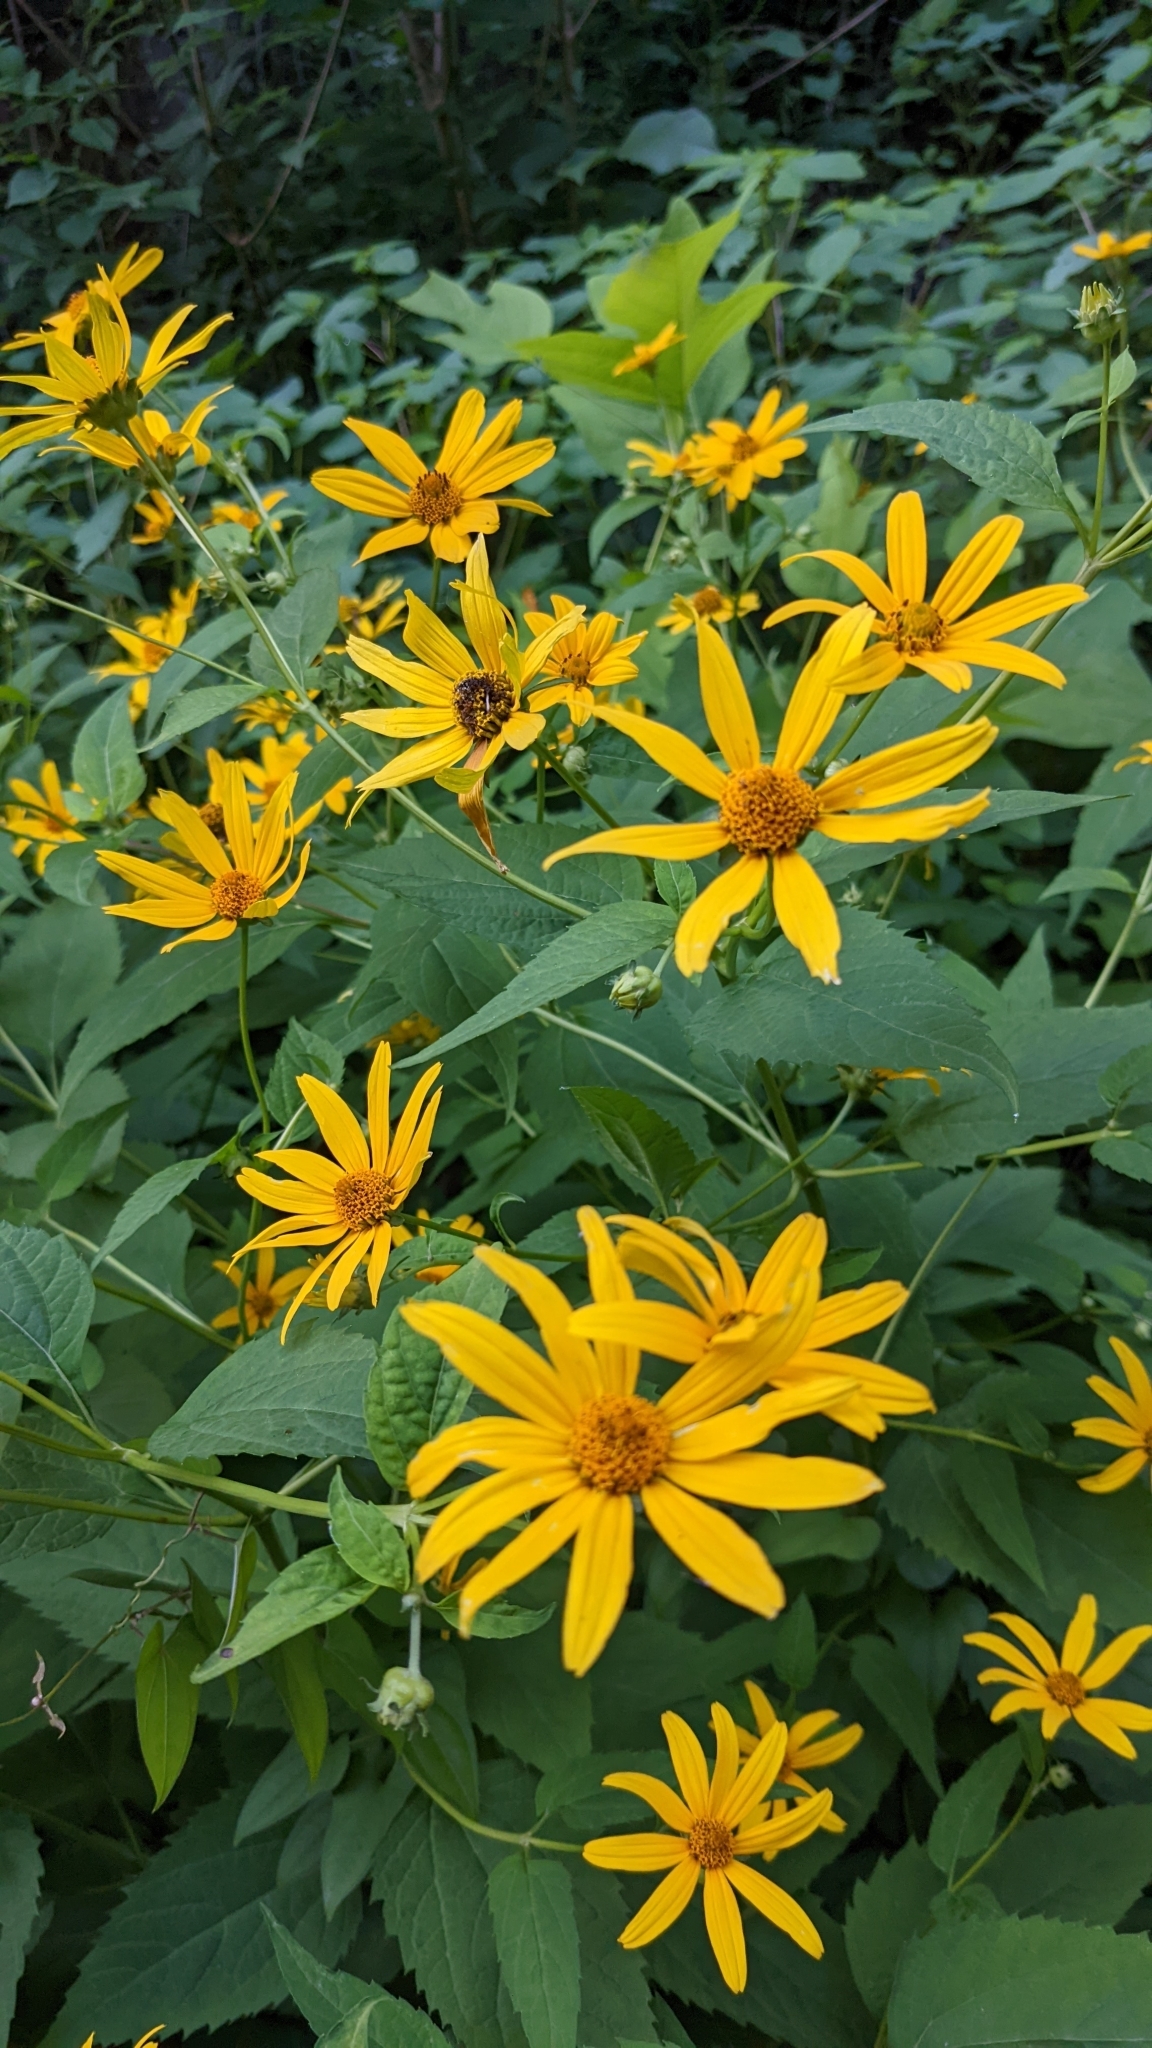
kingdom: Plantae
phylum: Tracheophyta
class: Magnoliopsida
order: Asterales
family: Asteraceae
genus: Helianthus
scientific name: Helianthus divaricatus
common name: Divergent sunflower
